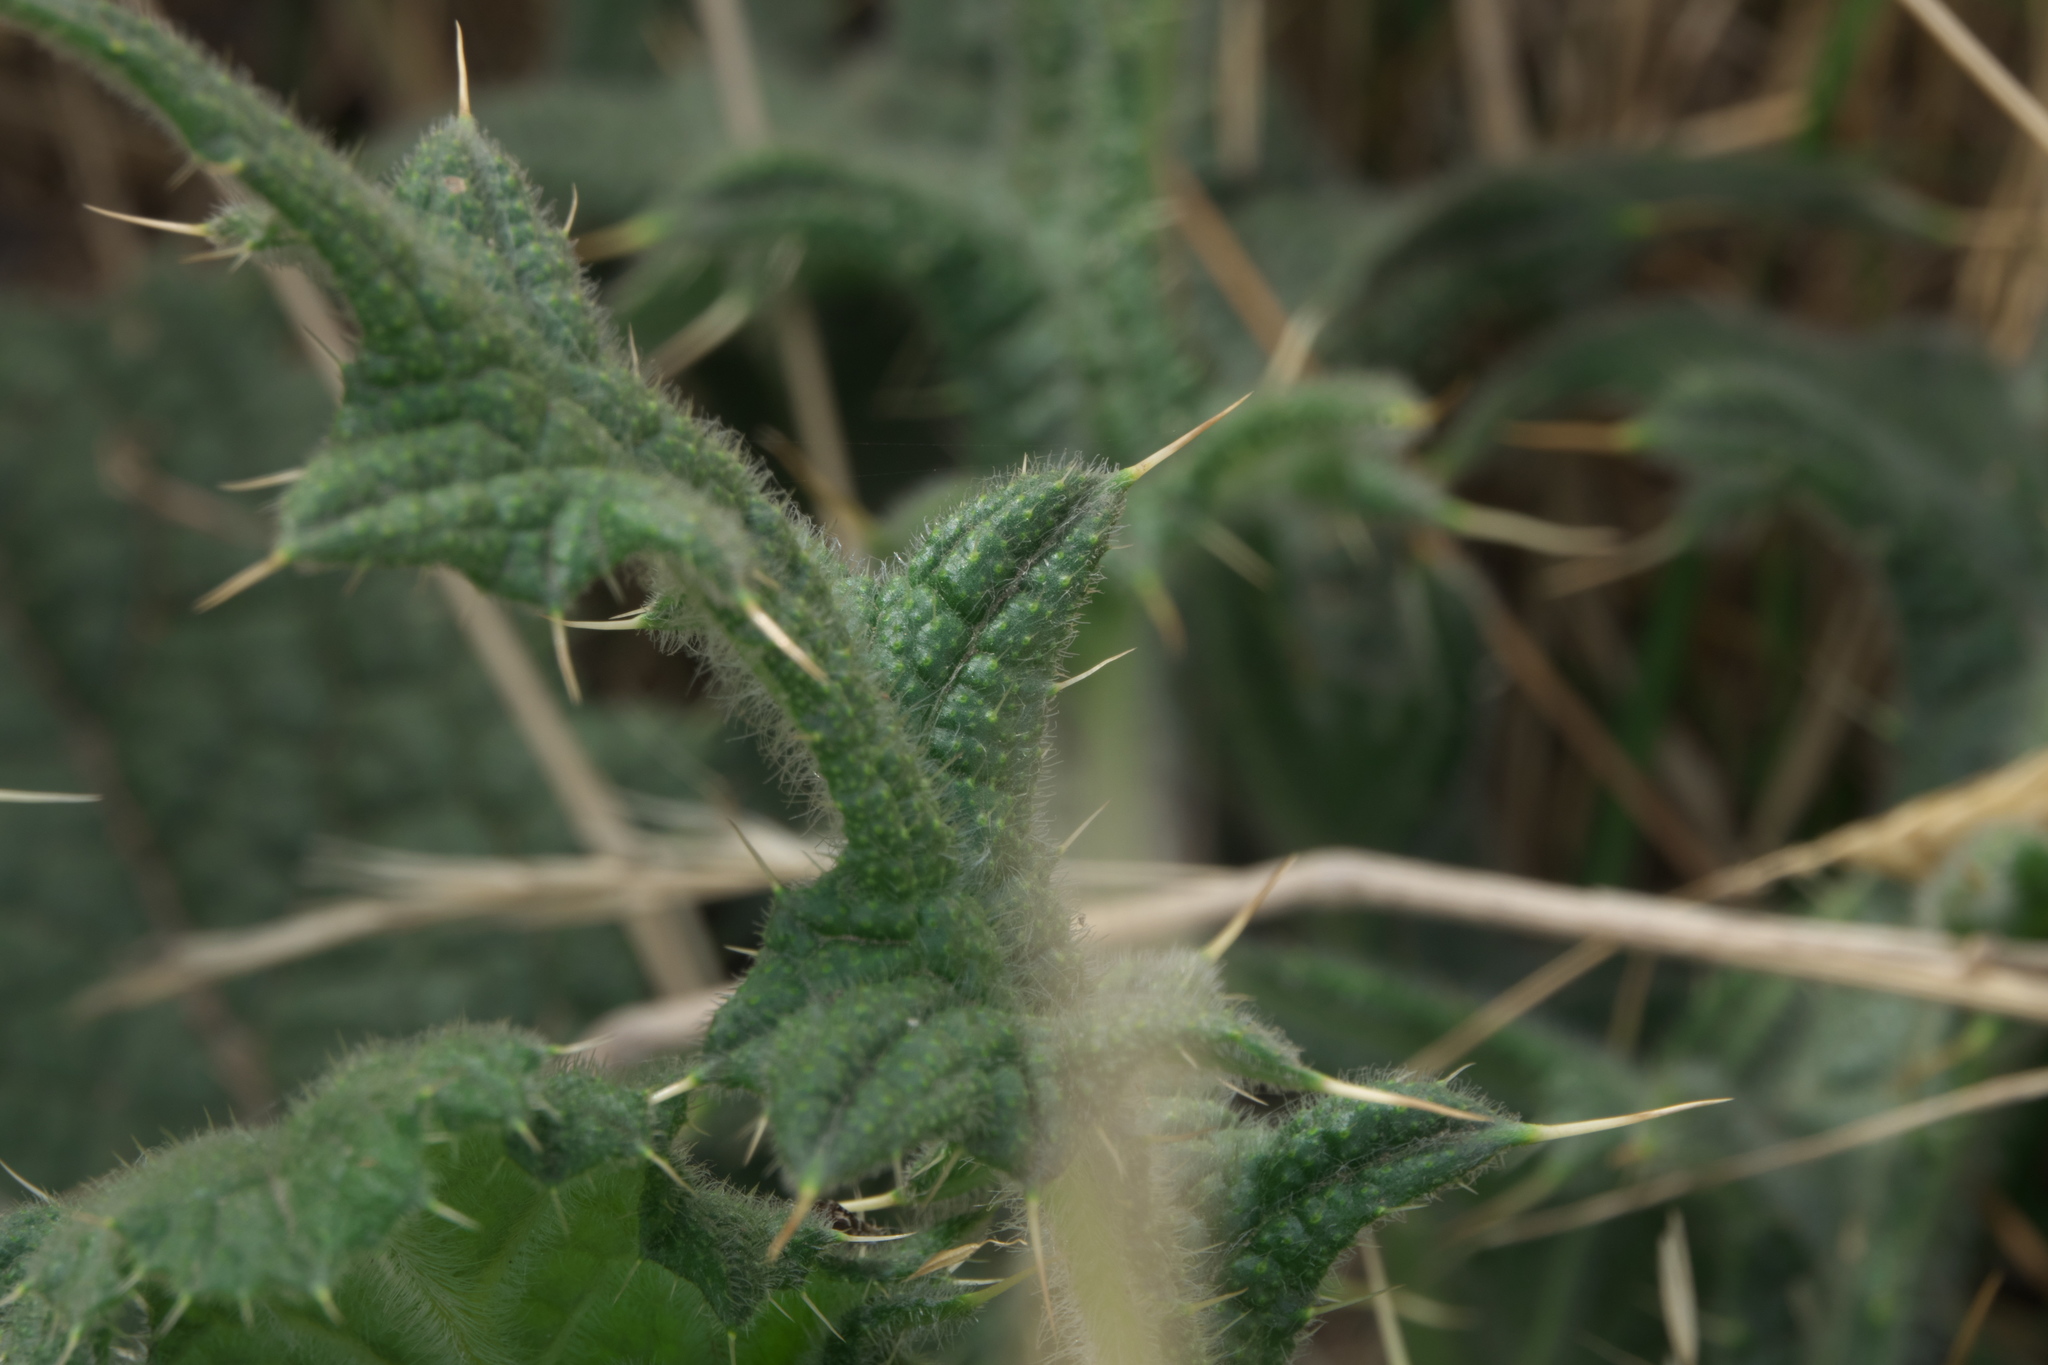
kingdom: Plantae
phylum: Tracheophyta
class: Magnoliopsida
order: Asterales
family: Asteraceae
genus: Cirsium
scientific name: Cirsium vulgare
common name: Bull thistle
